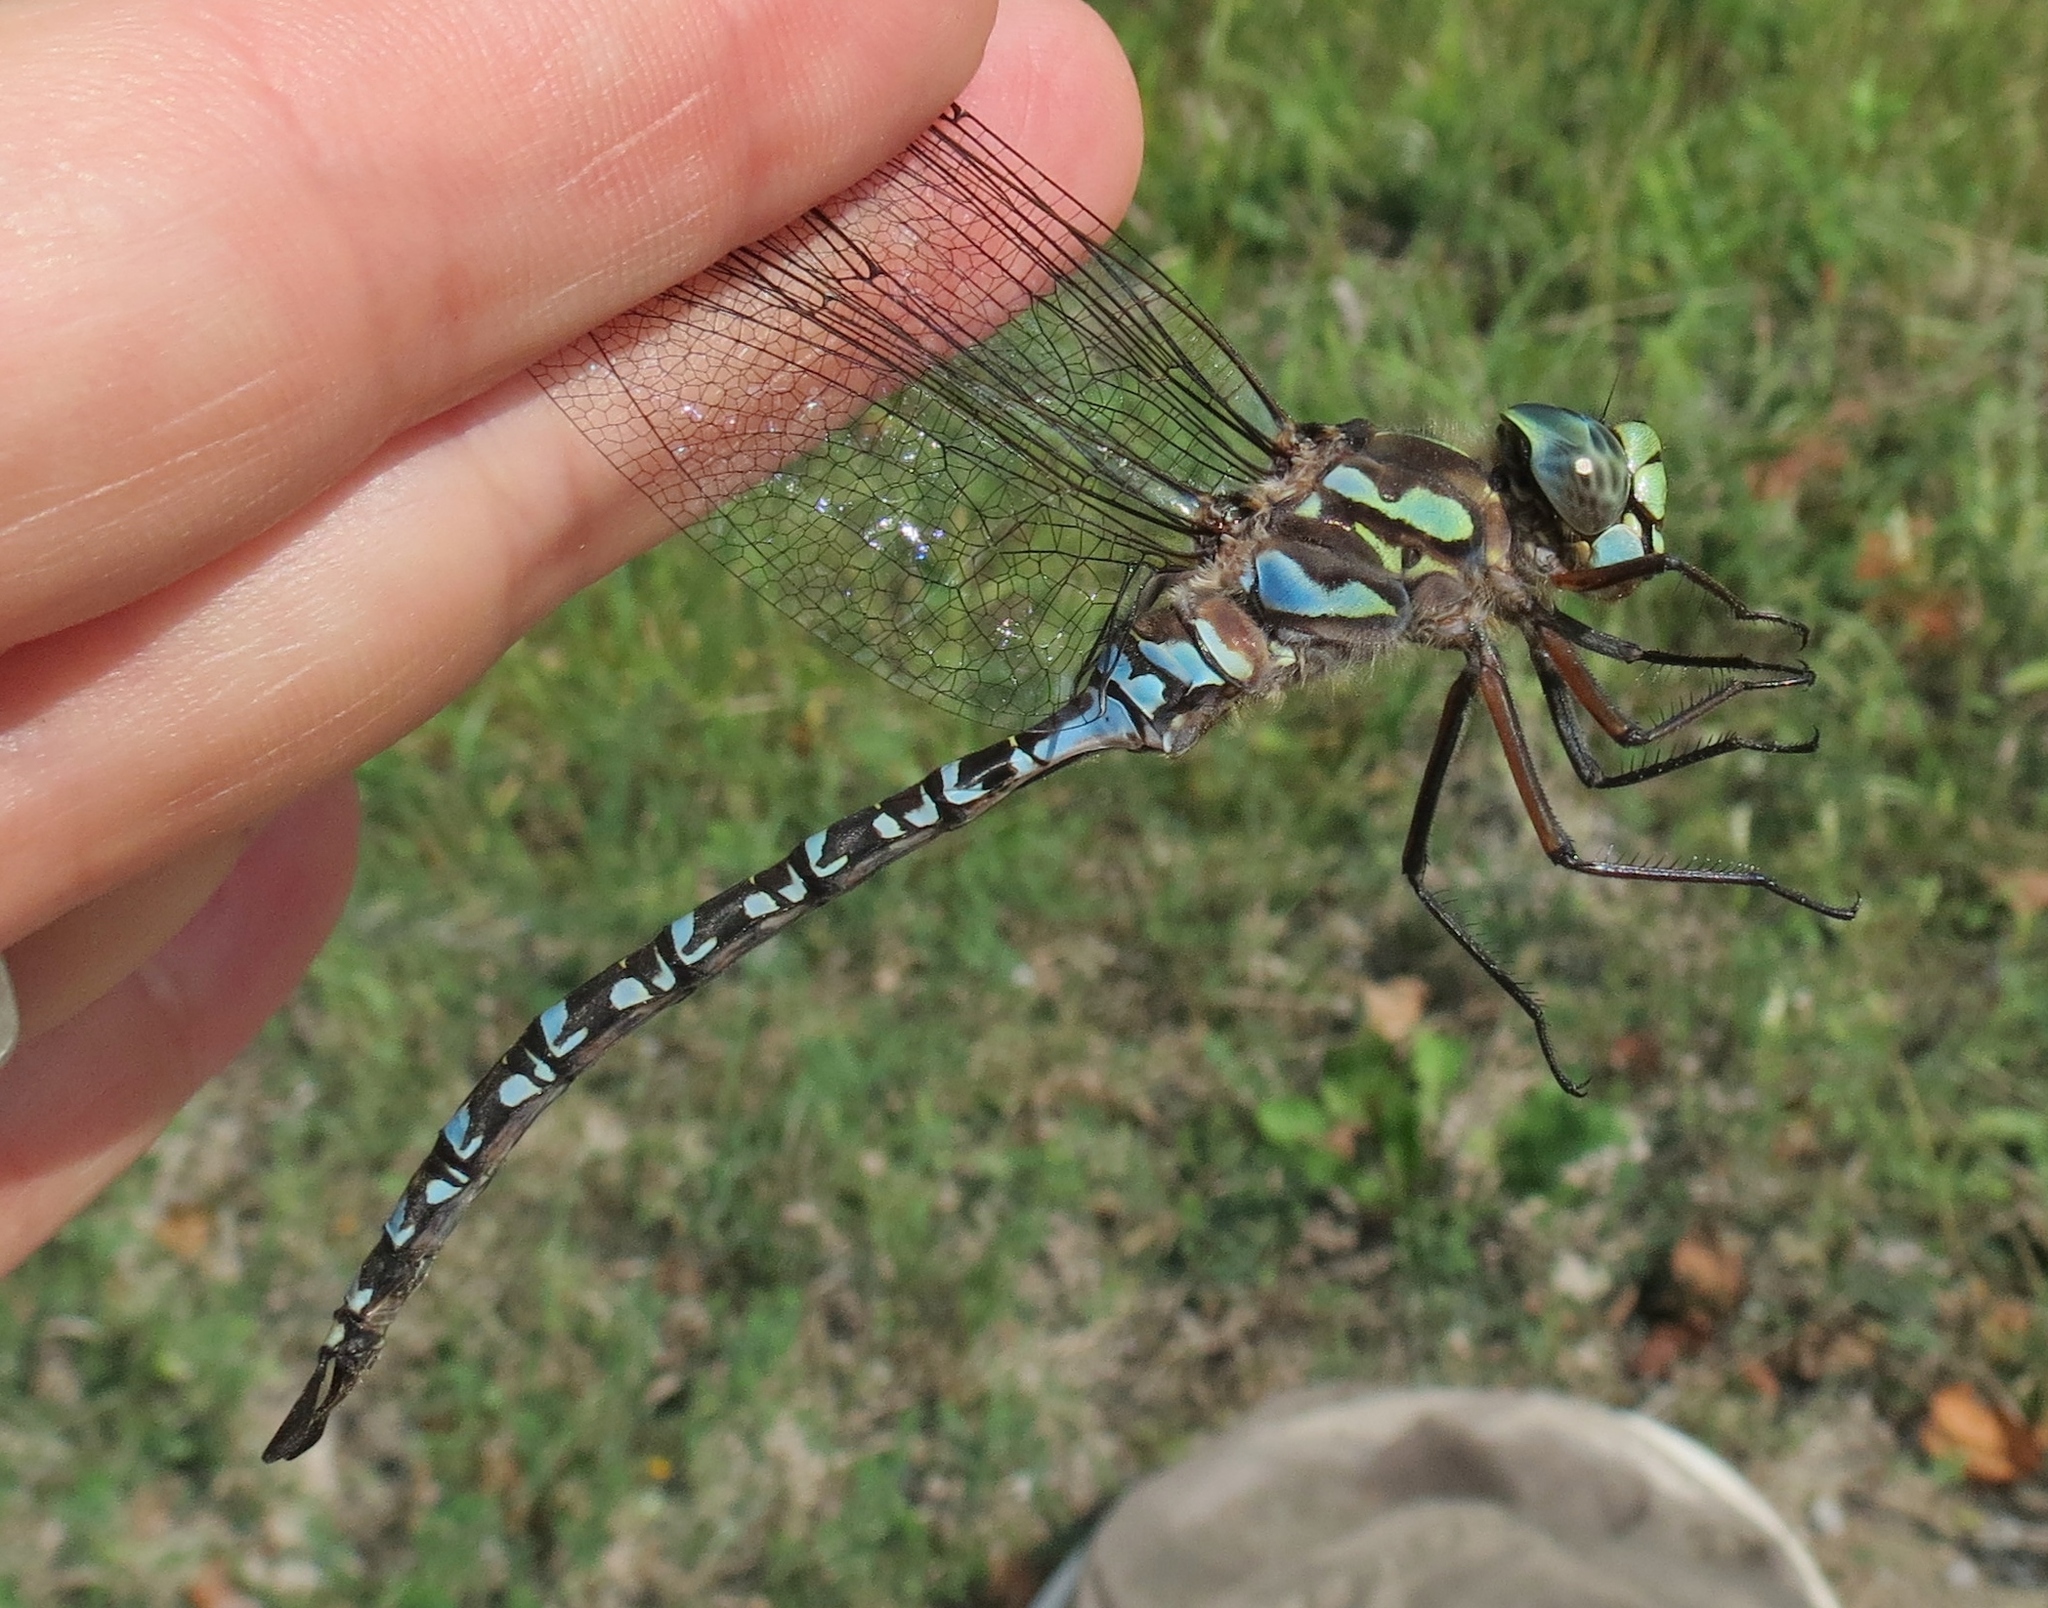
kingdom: Animalia
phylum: Arthropoda
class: Insecta
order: Odonata
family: Aeshnidae
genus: Aeshna
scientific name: Aeshna eremita
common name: Lake darner
